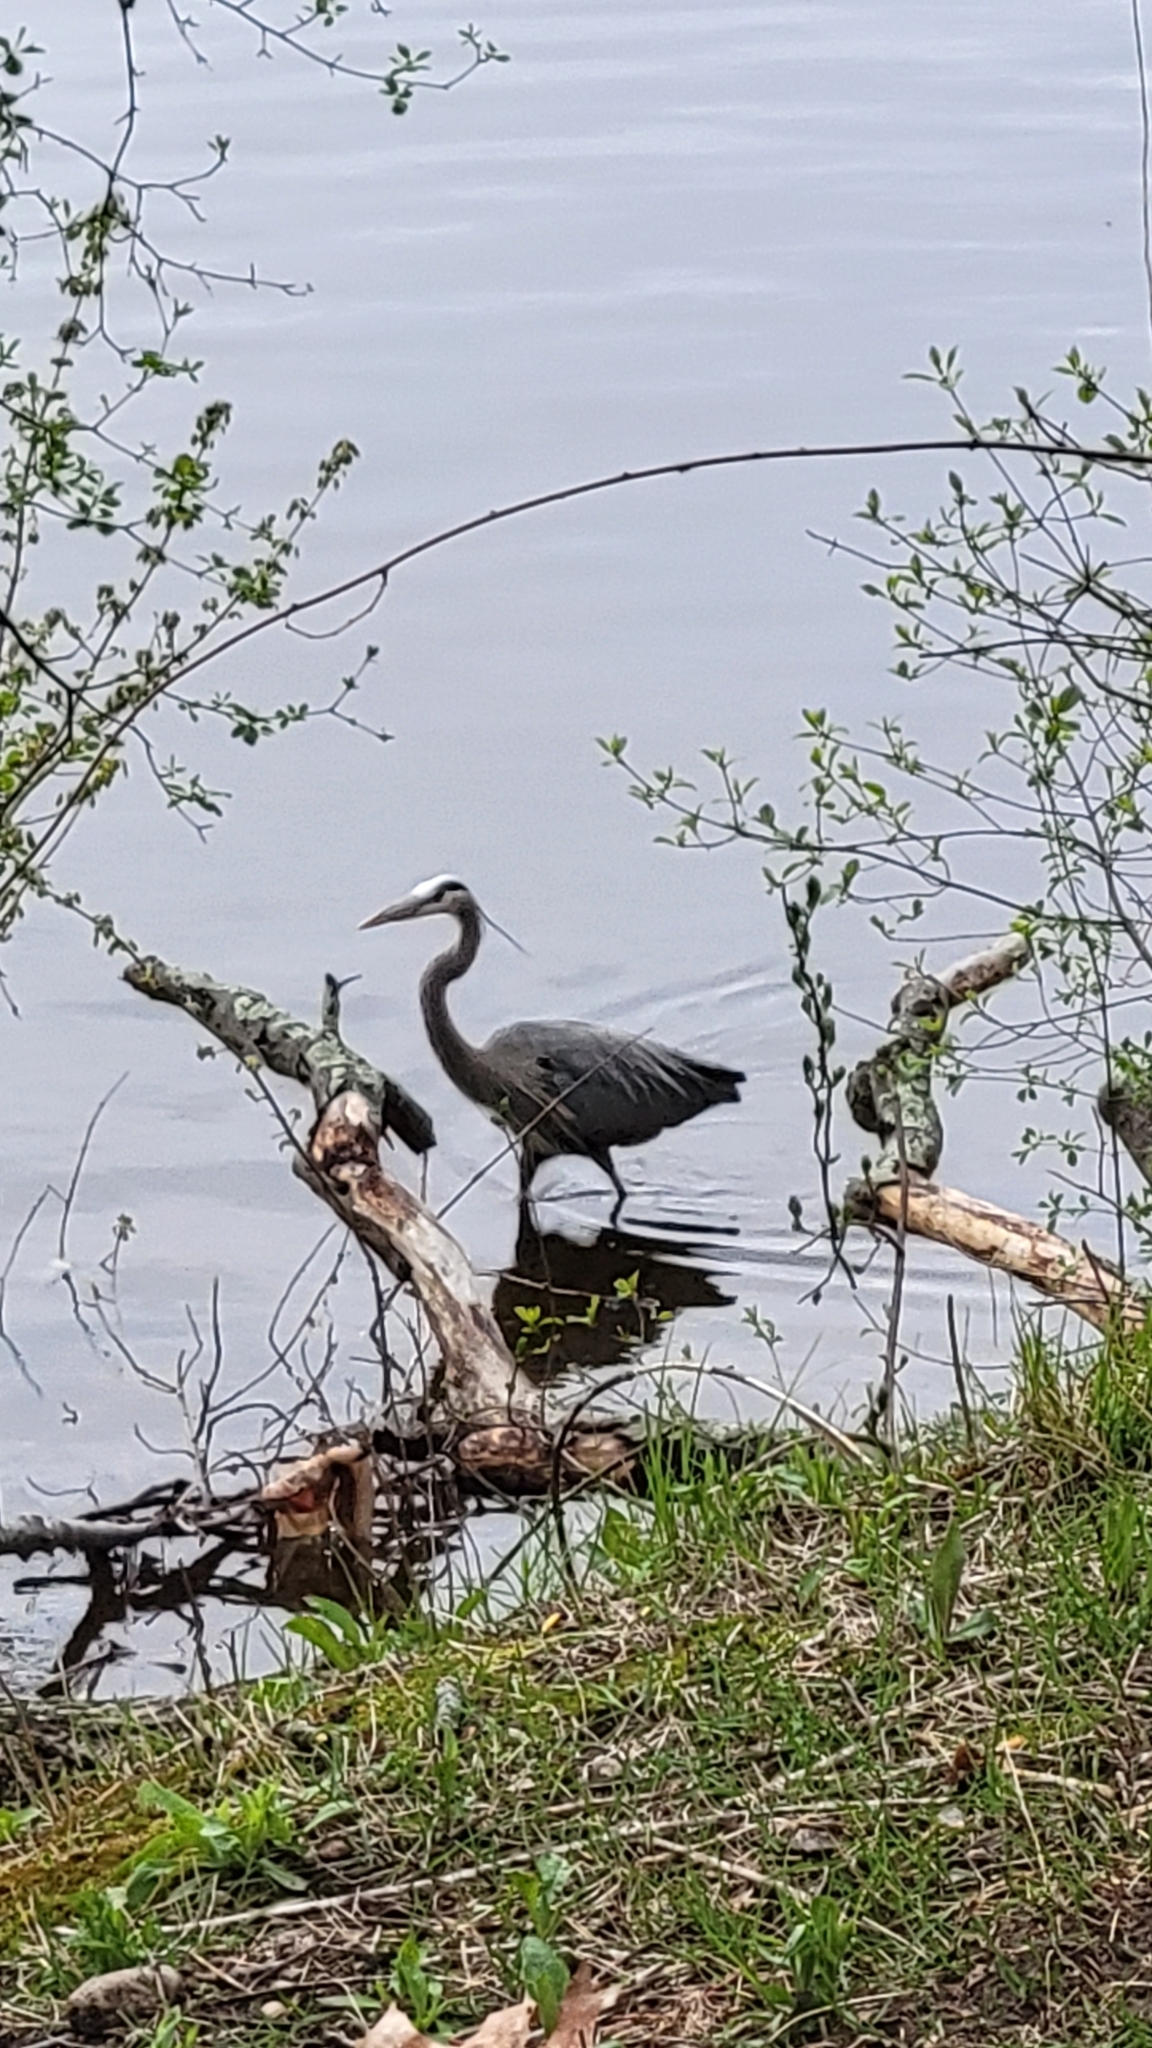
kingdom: Animalia
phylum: Chordata
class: Aves
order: Pelecaniformes
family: Ardeidae
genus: Ardea
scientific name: Ardea herodias
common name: Great blue heron
